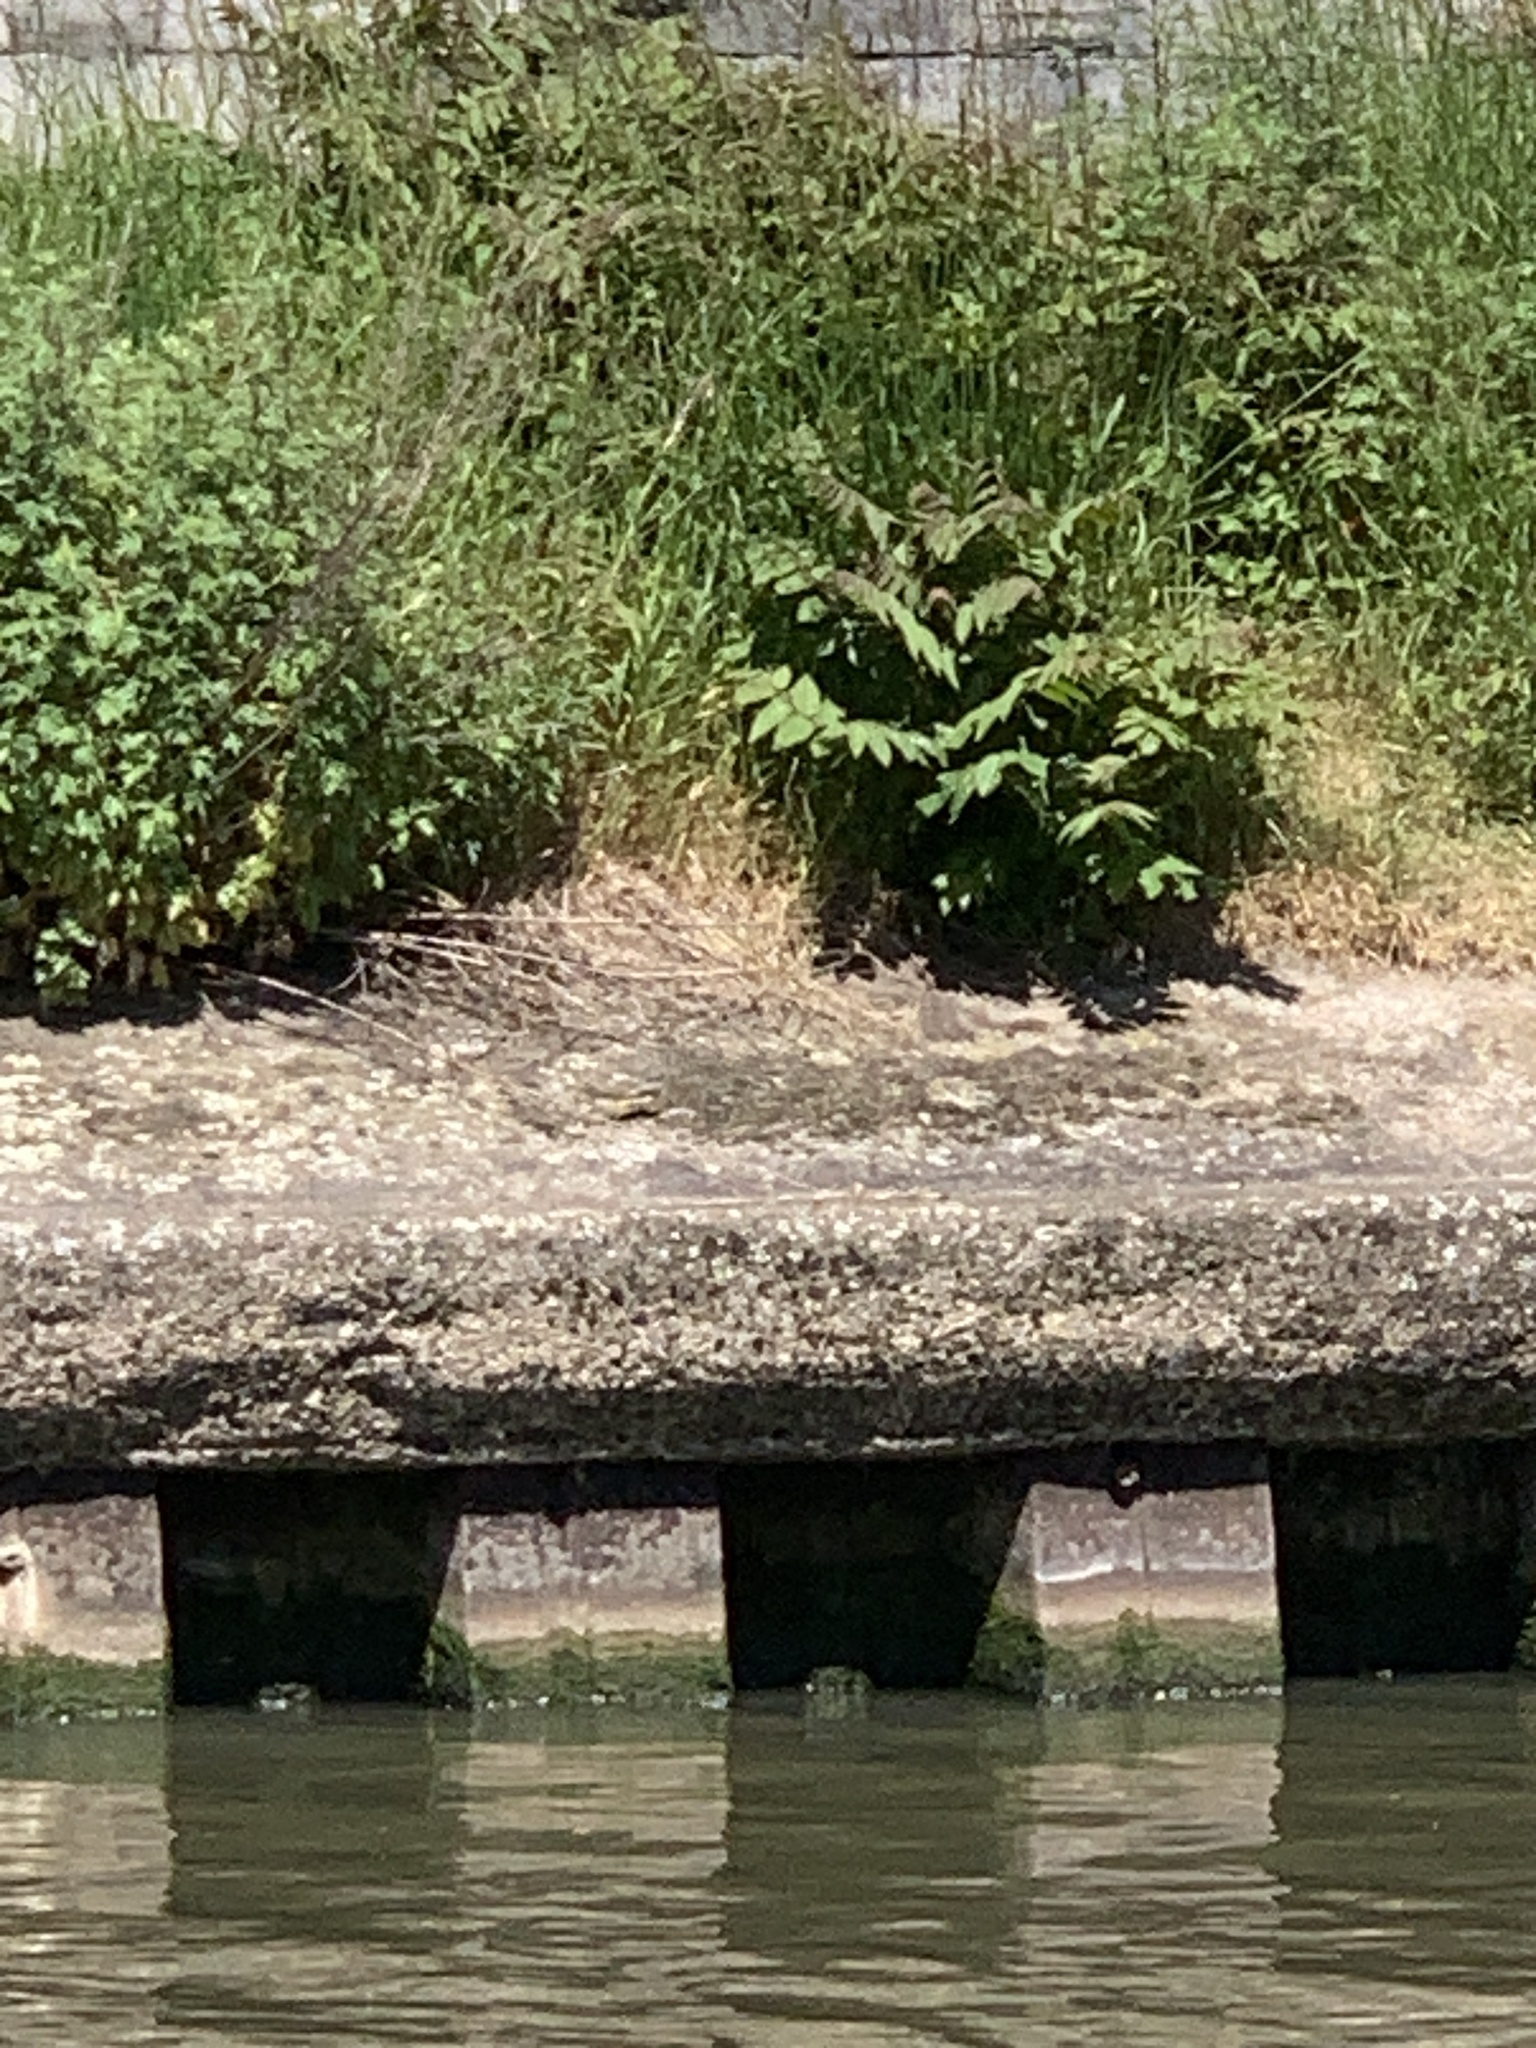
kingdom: Animalia
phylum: Chordata
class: Aves
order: Passeriformes
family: Motacillidae
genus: Motacilla
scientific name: Motacilla cinerea
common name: Grey wagtail
